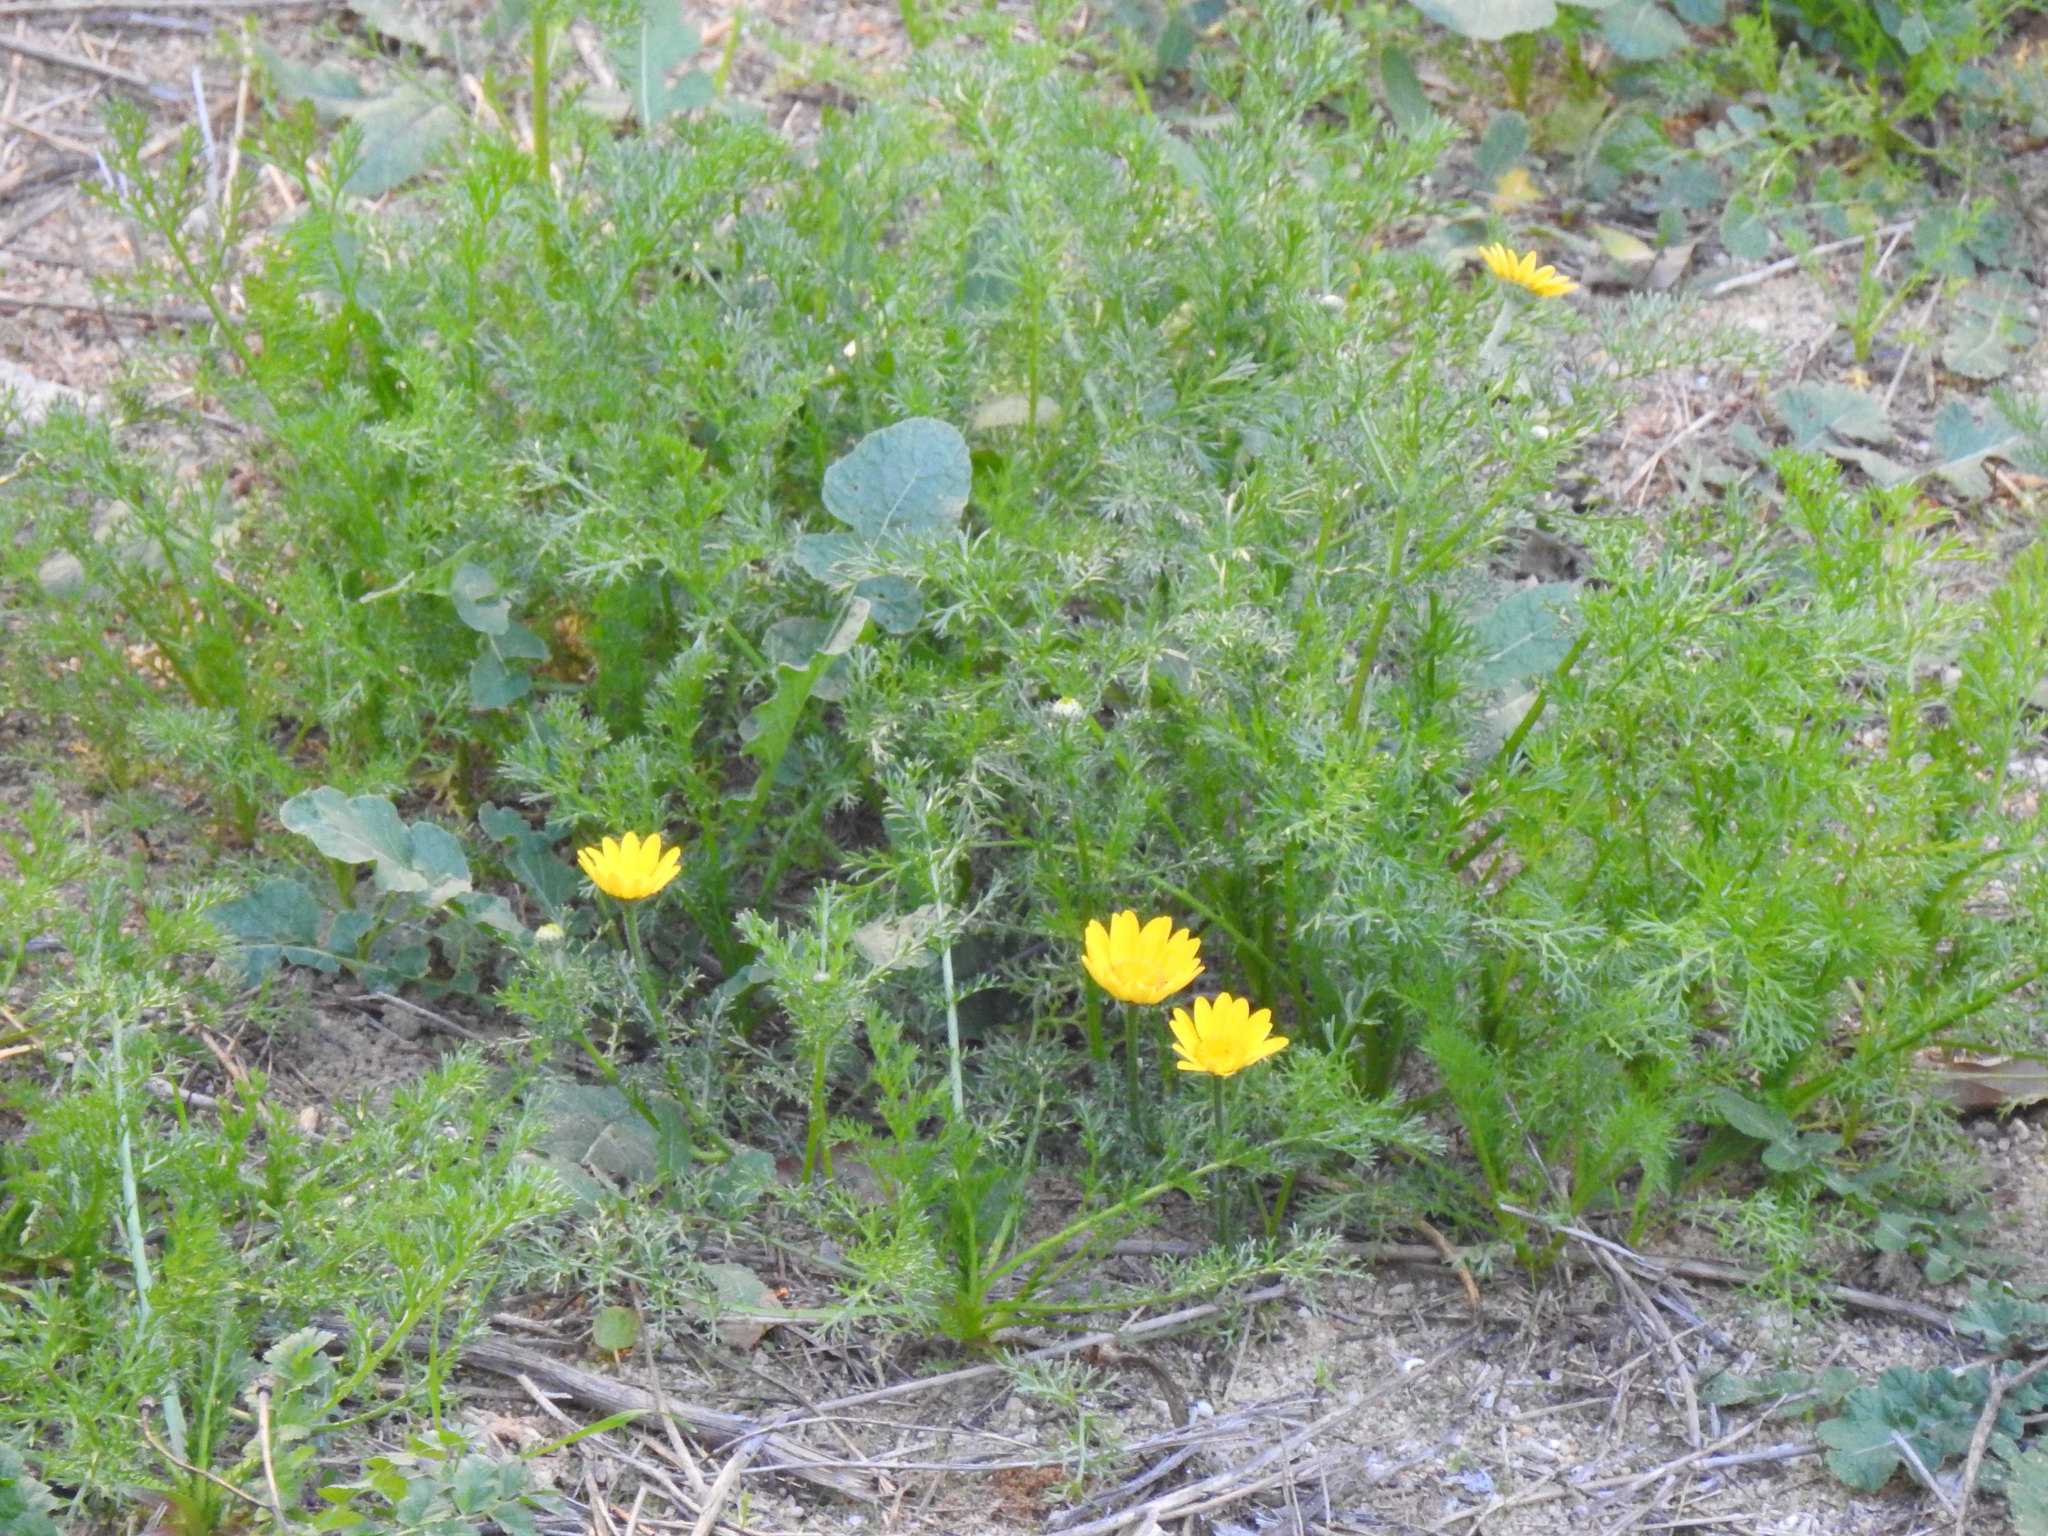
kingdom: Plantae
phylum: Tracheophyta
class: Magnoliopsida
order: Asterales
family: Asteraceae
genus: Anacyclus
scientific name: Anacyclus radiatus
